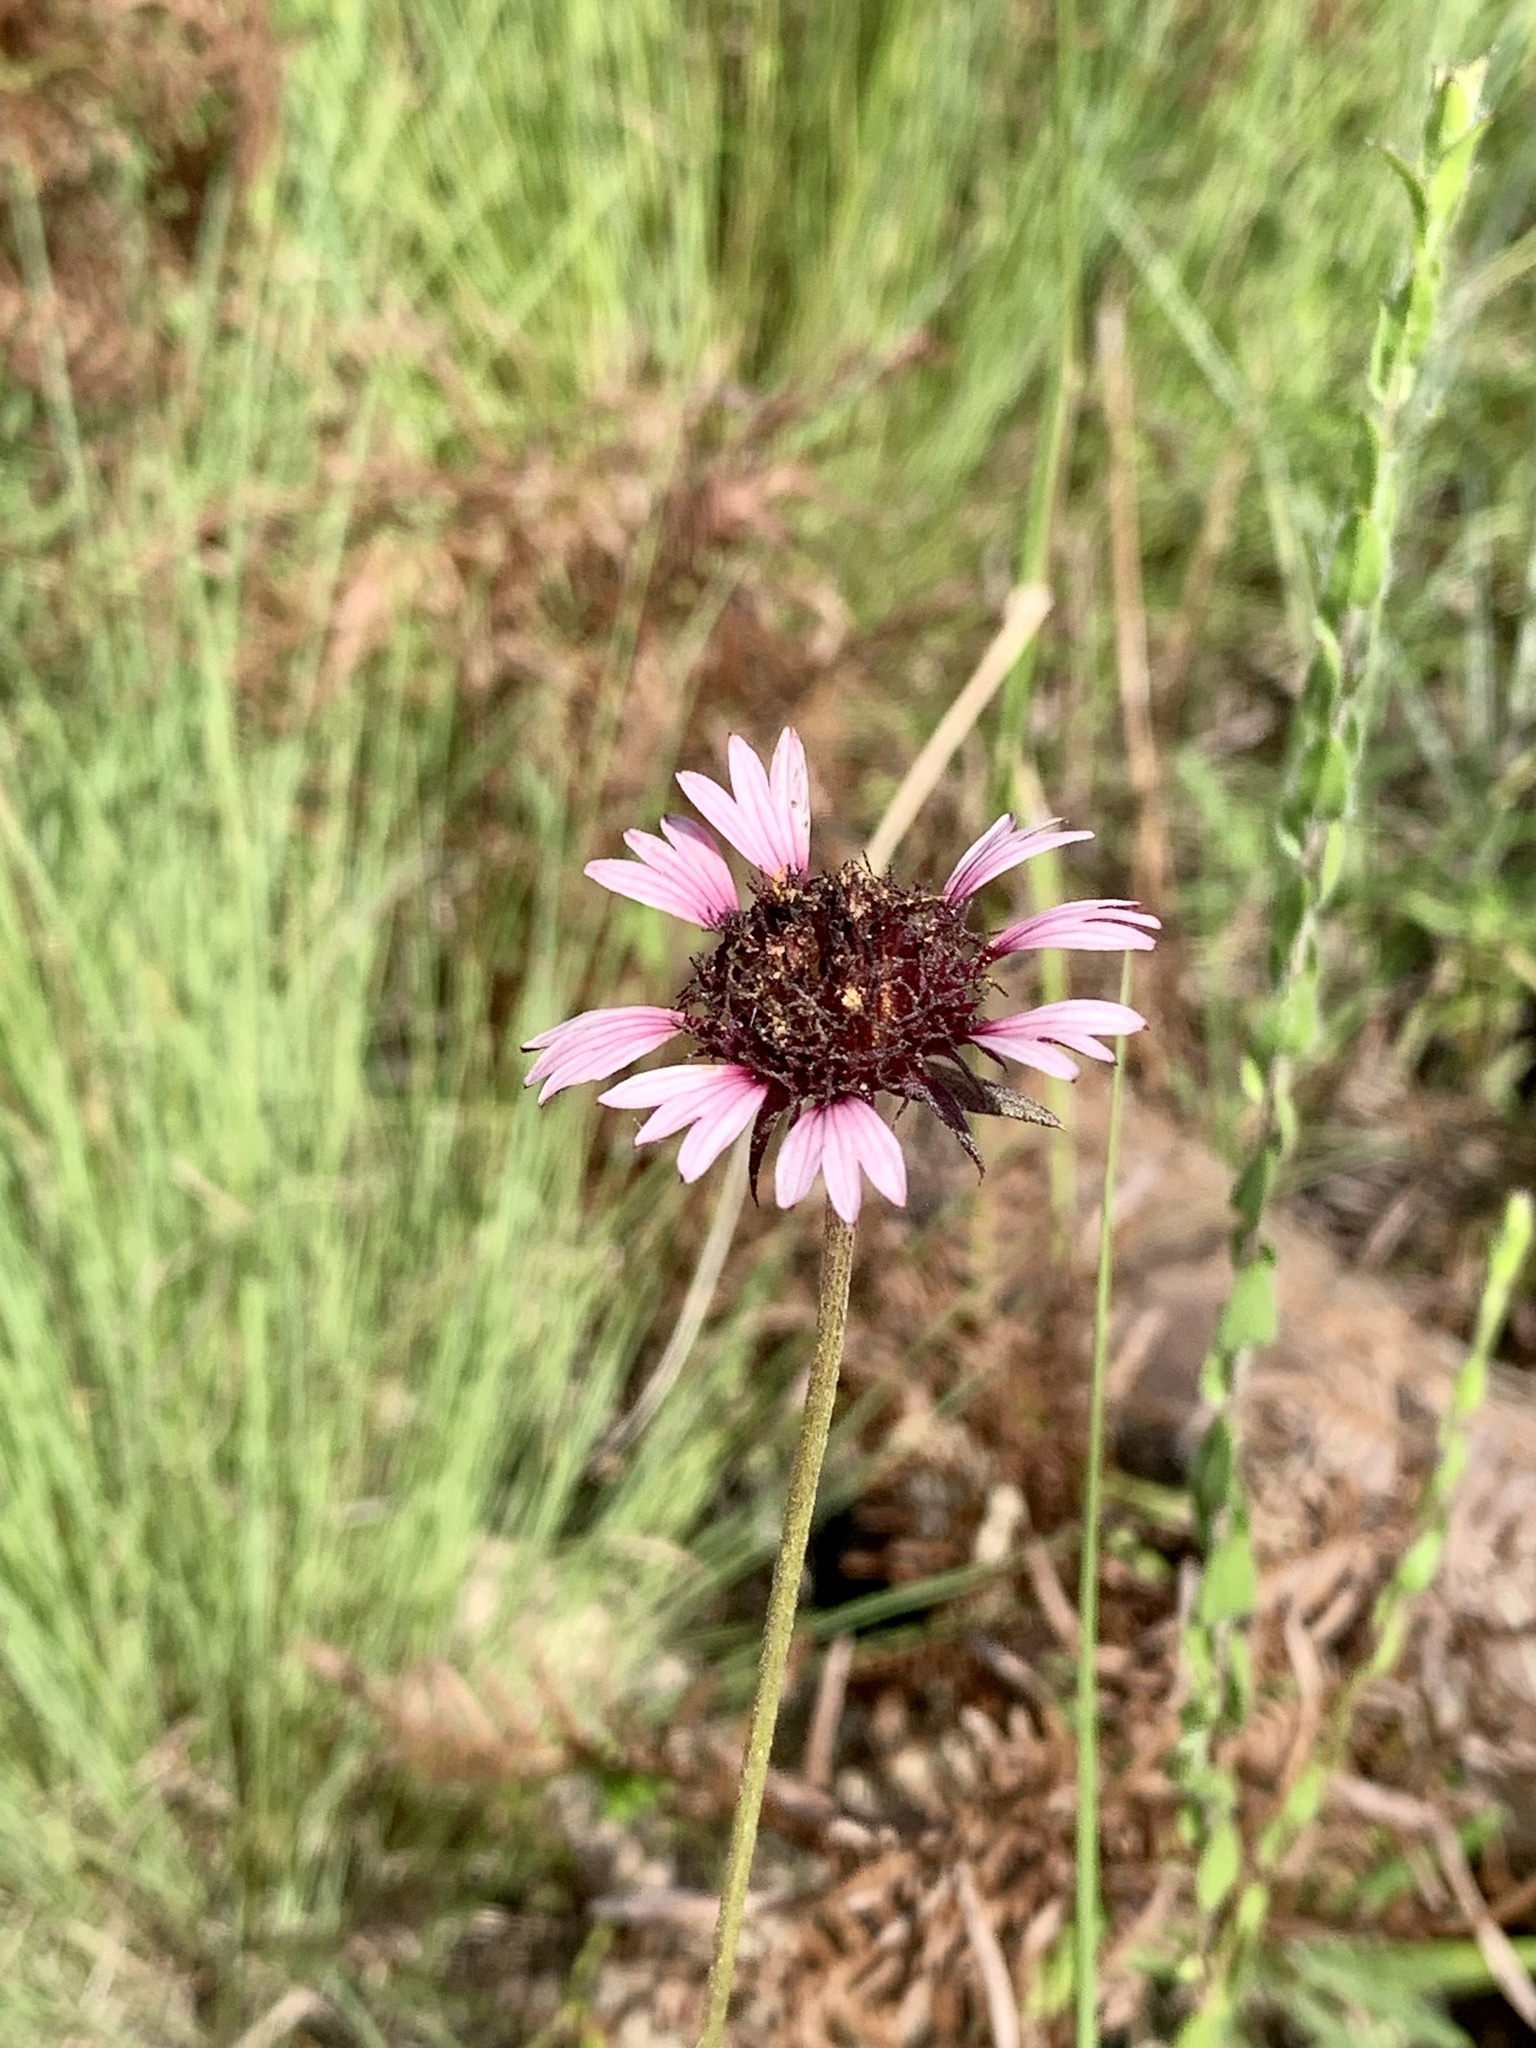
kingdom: Plantae
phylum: Tracheophyta
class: Magnoliopsida
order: Asterales
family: Asteraceae
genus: Gaillardia
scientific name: Gaillardia aestivalis
